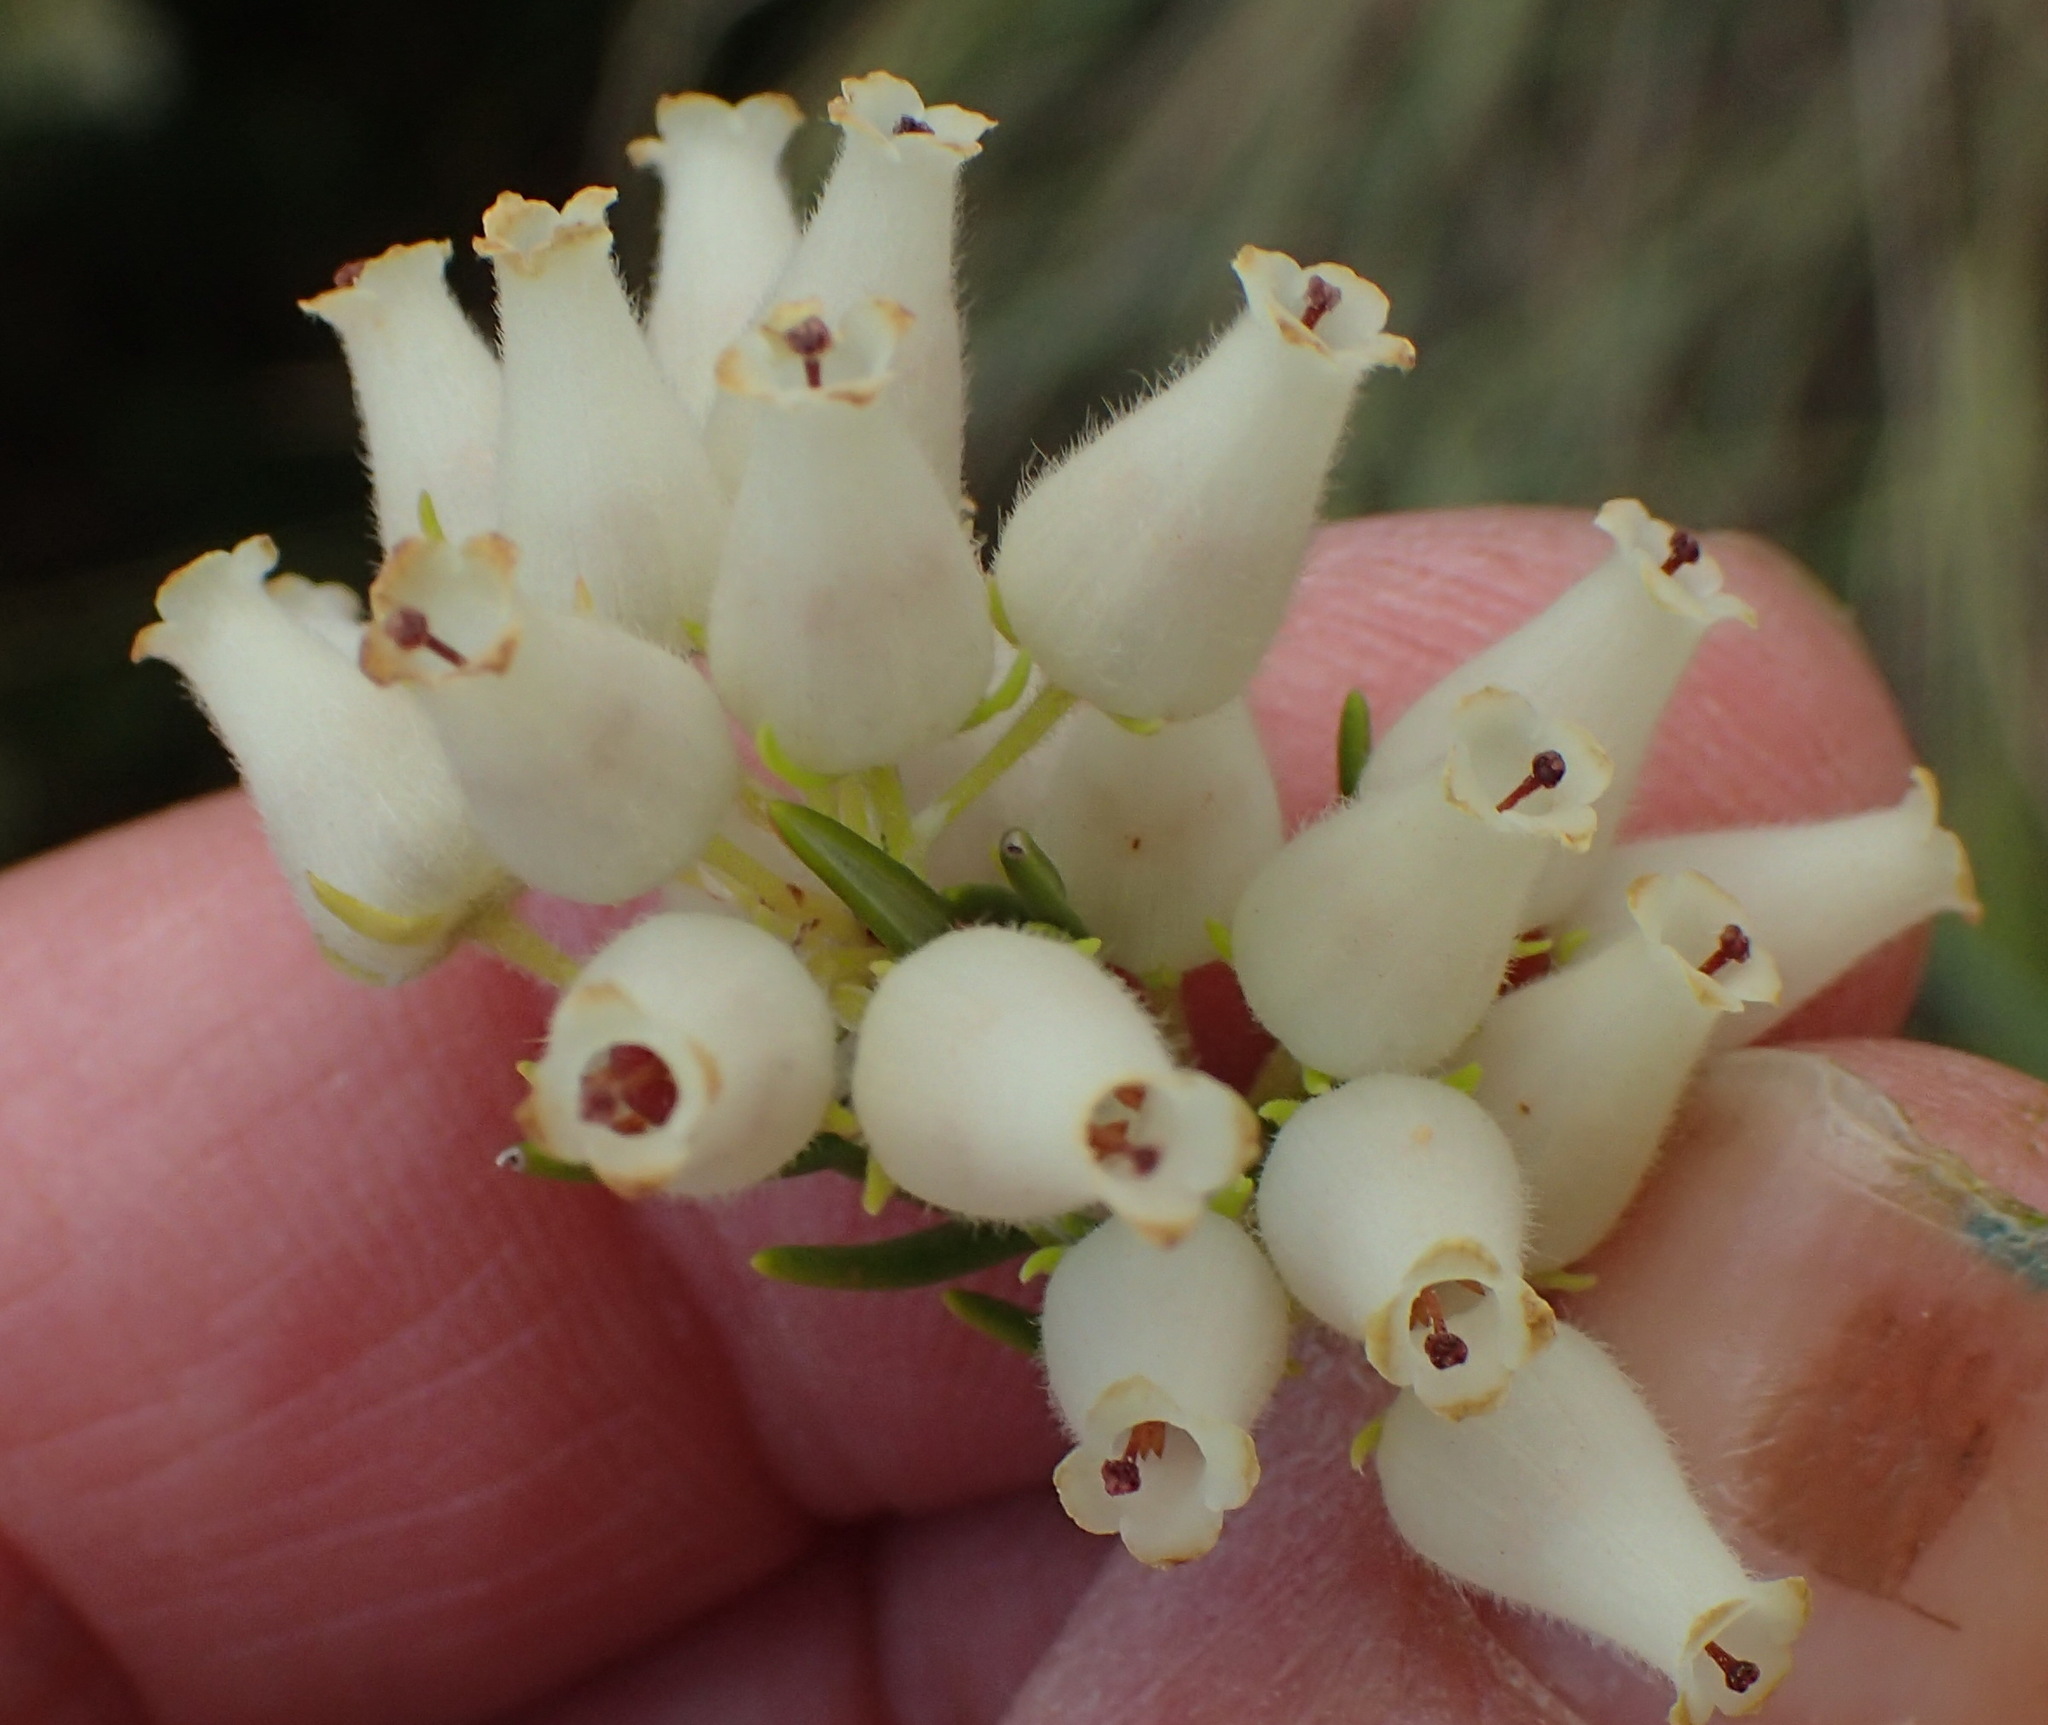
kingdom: Plantae
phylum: Tracheophyta
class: Magnoliopsida
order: Ericales
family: Ericaceae
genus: Erica
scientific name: Erica caffra
